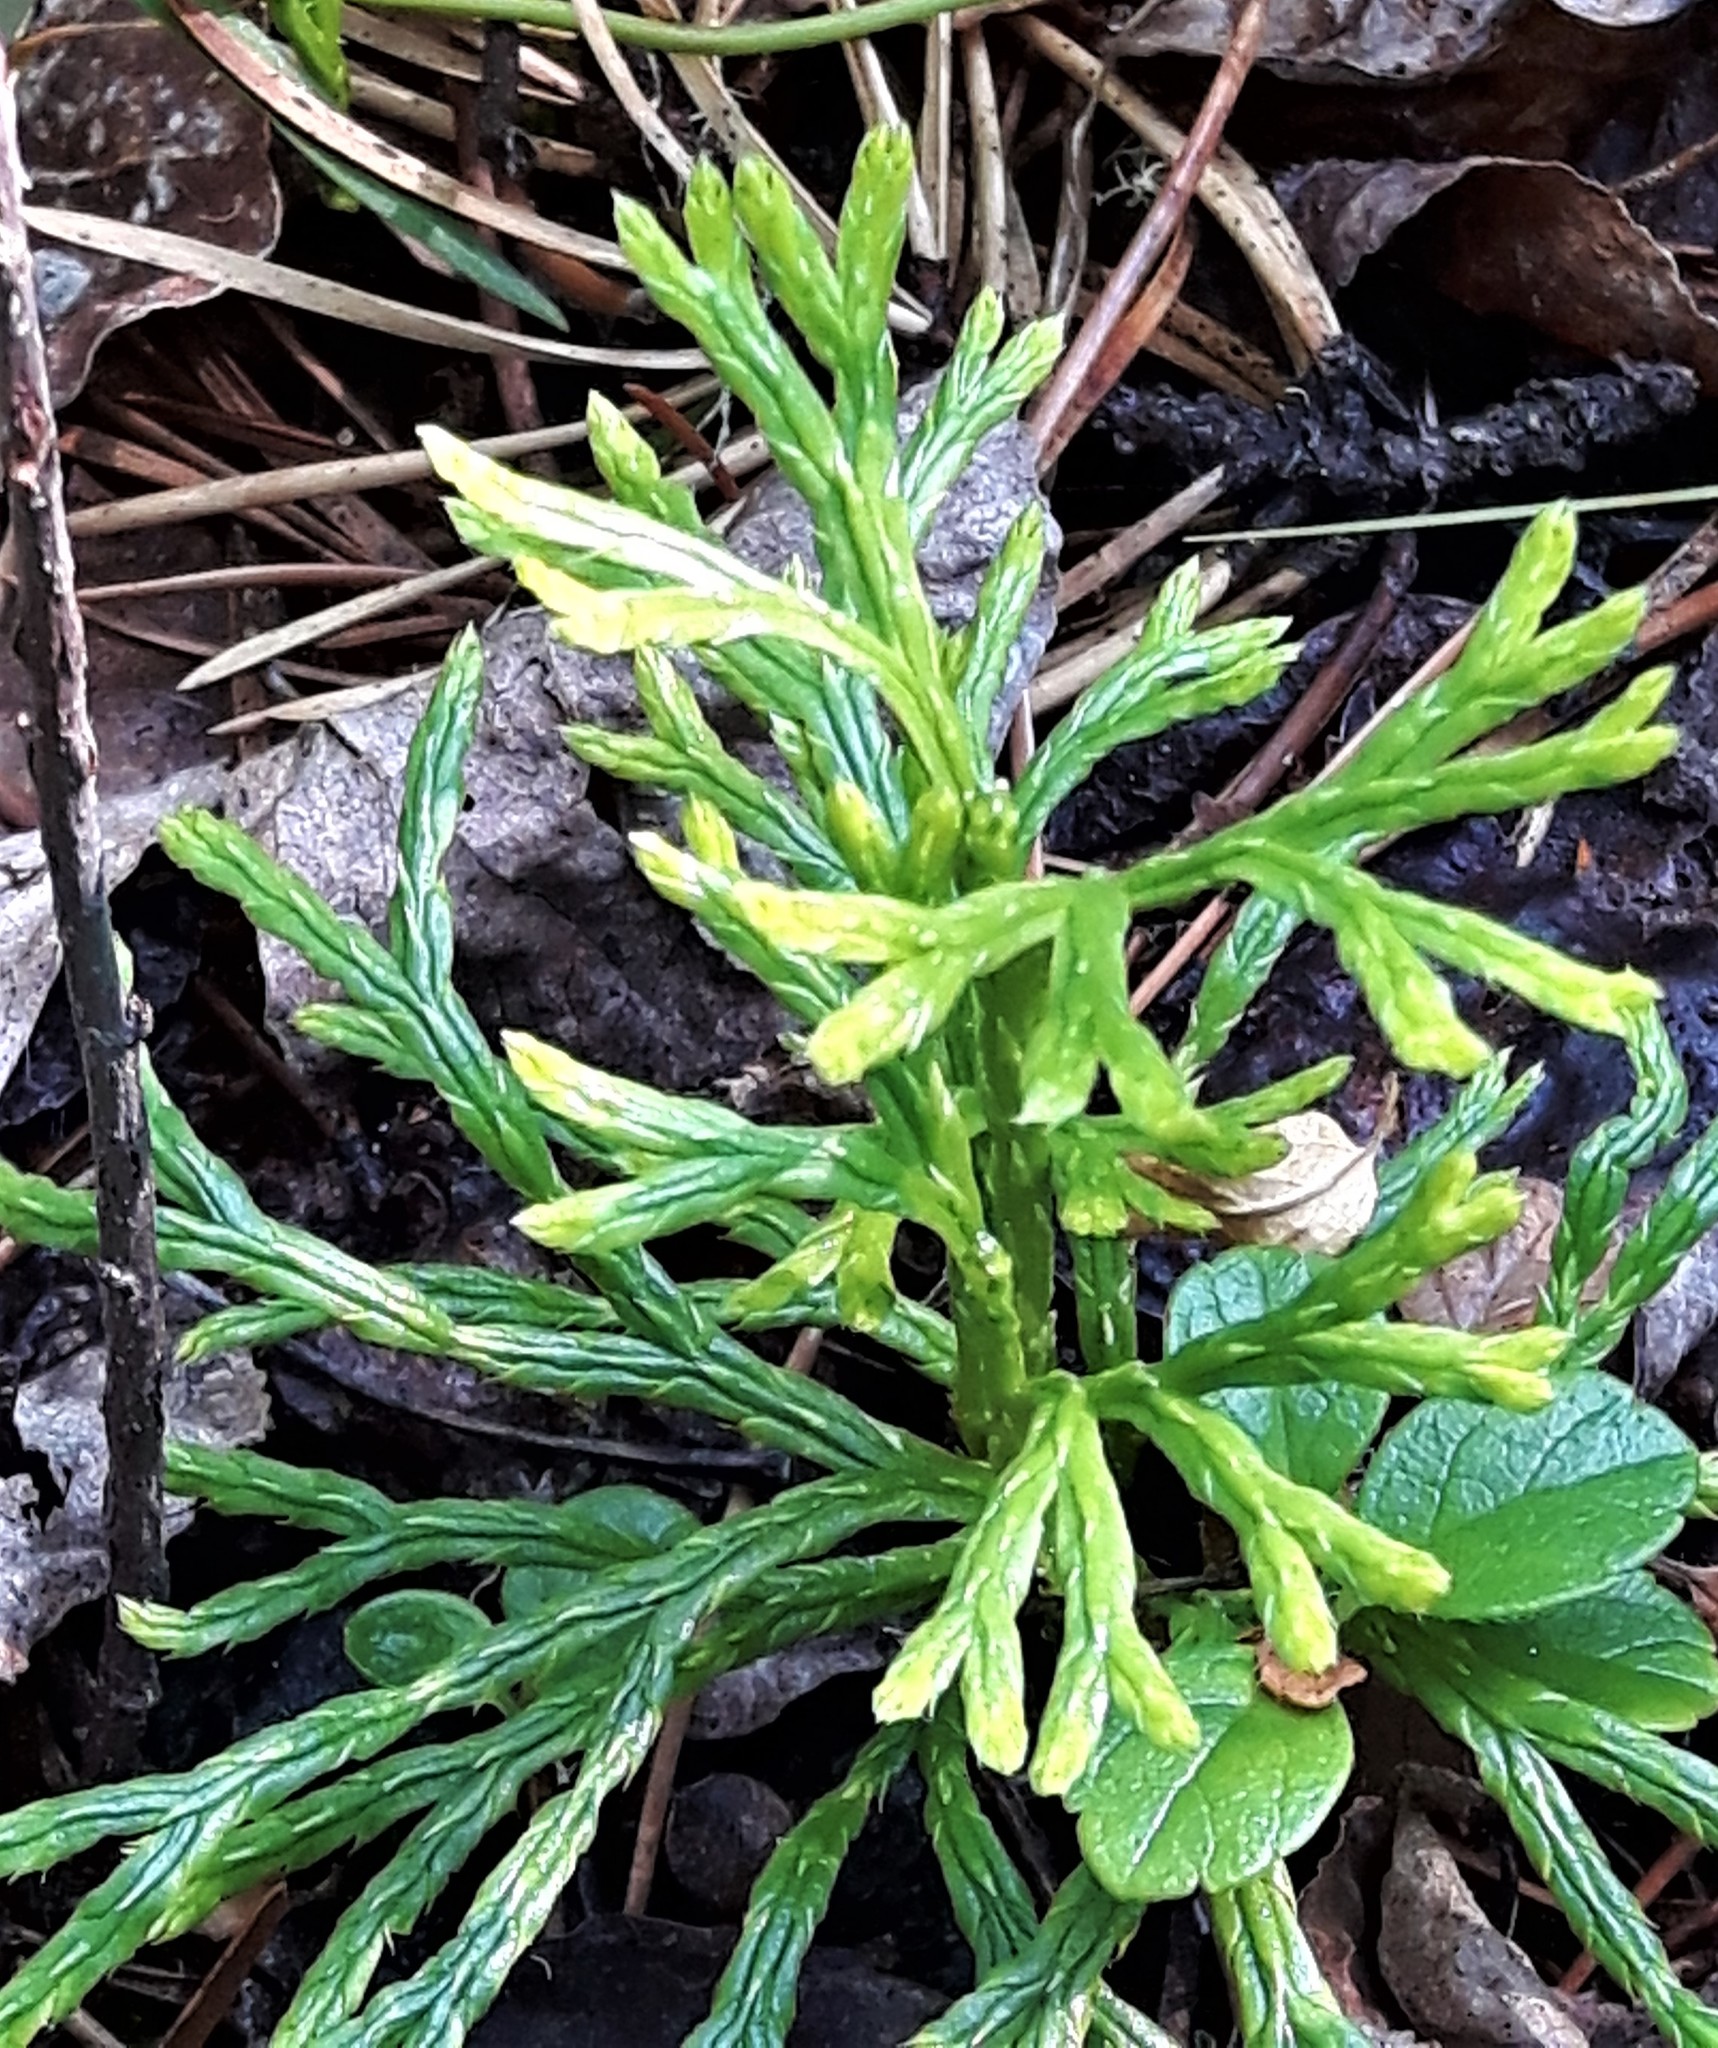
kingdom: Plantae
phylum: Tracheophyta
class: Lycopodiopsida
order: Lycopodiales
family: Lycopodiaceae
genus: Diphasiastrum
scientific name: Diphasiastrum complanatum
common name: Northern running-pine
